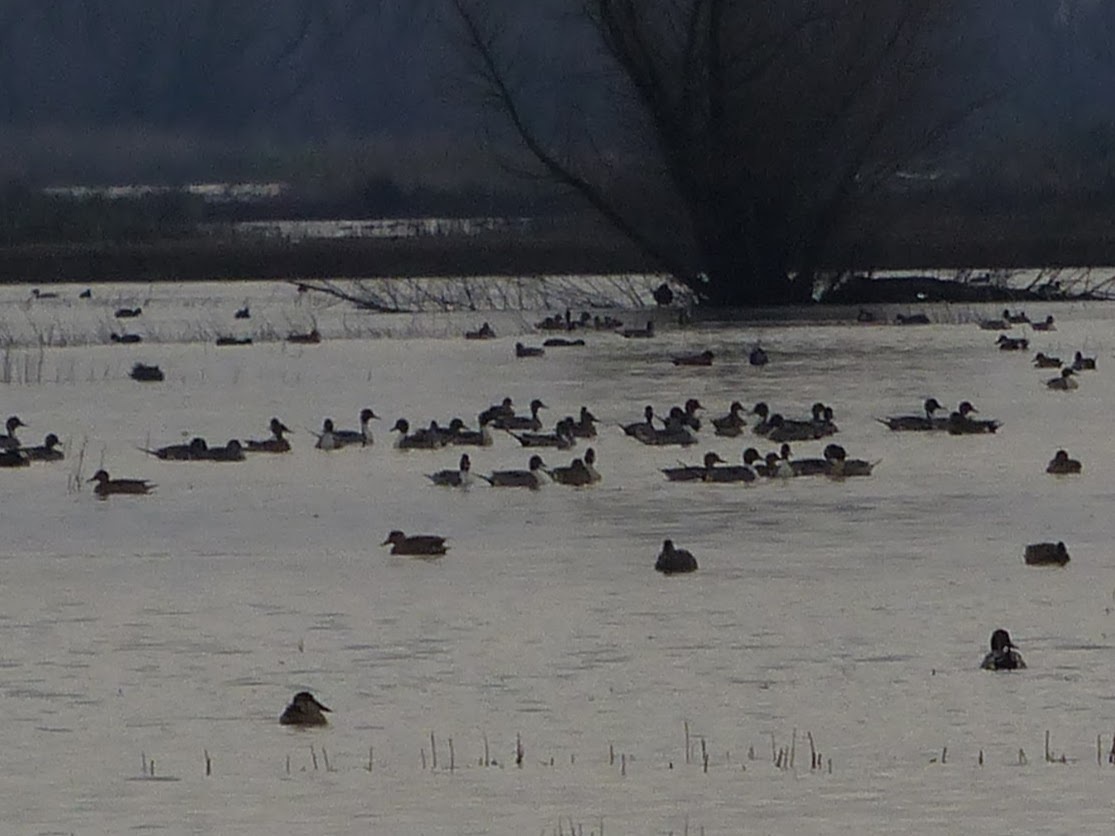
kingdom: Animalia
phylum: Chordata
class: Aves
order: Anseriformes
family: Anatidae
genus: Anas
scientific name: Anas acuta
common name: Northern pintail
